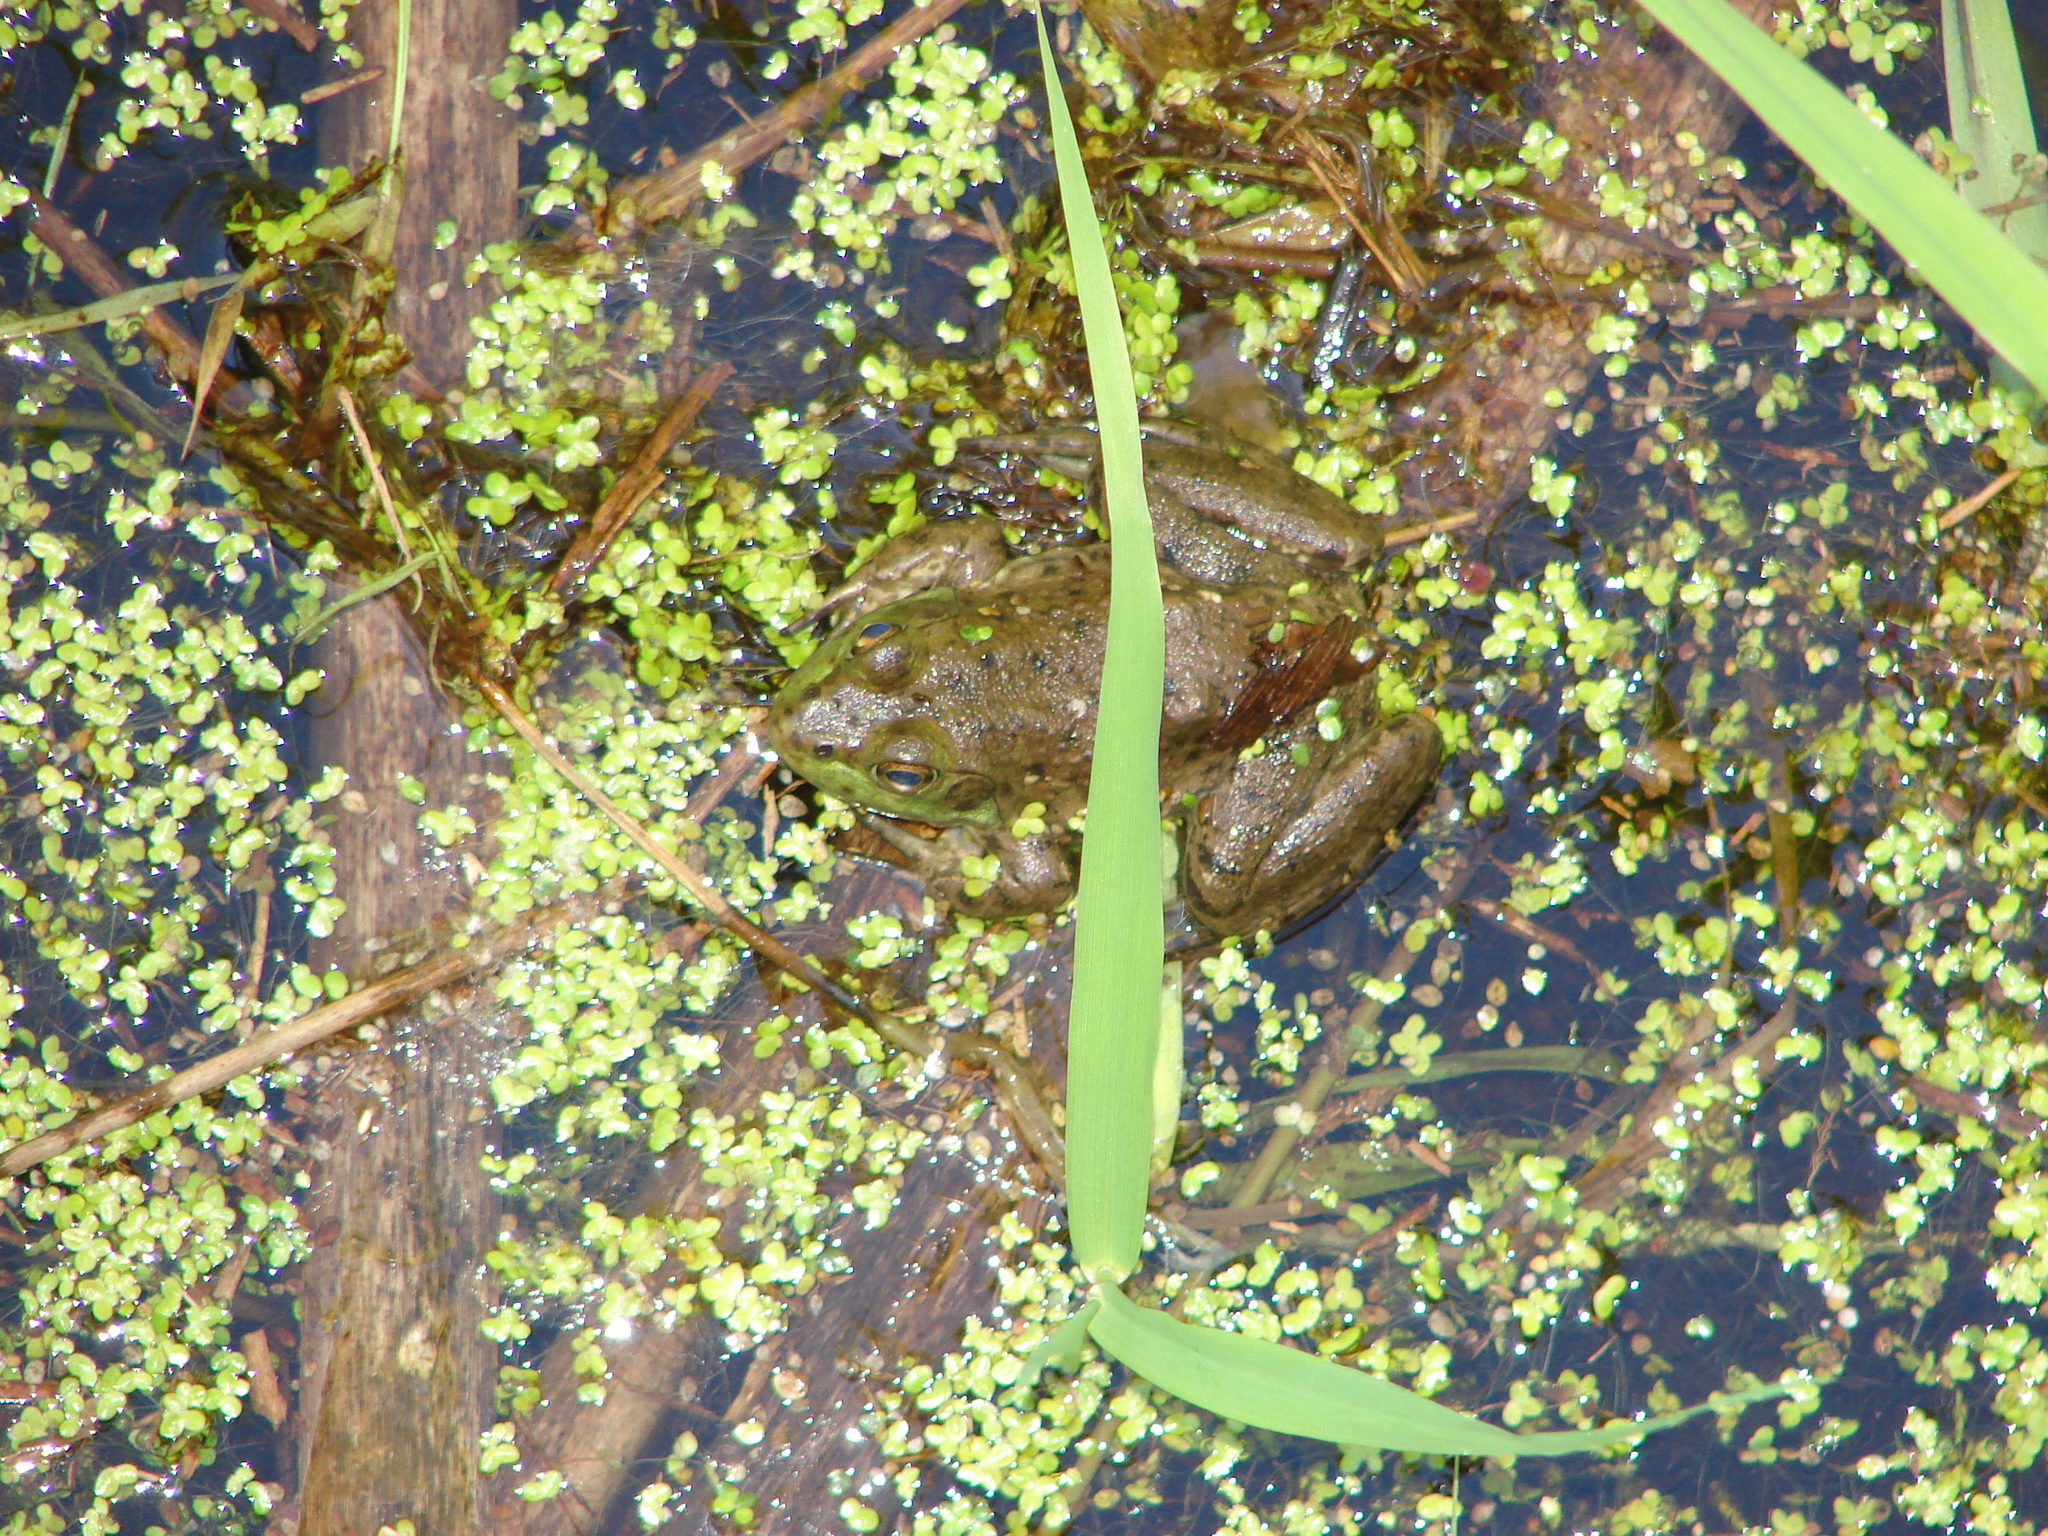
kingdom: Animalia
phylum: Chordata
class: Amphibia
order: Anura
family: Ranidae
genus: Lithobates
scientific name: Lithobates catesbeianus
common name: American bullfrog
